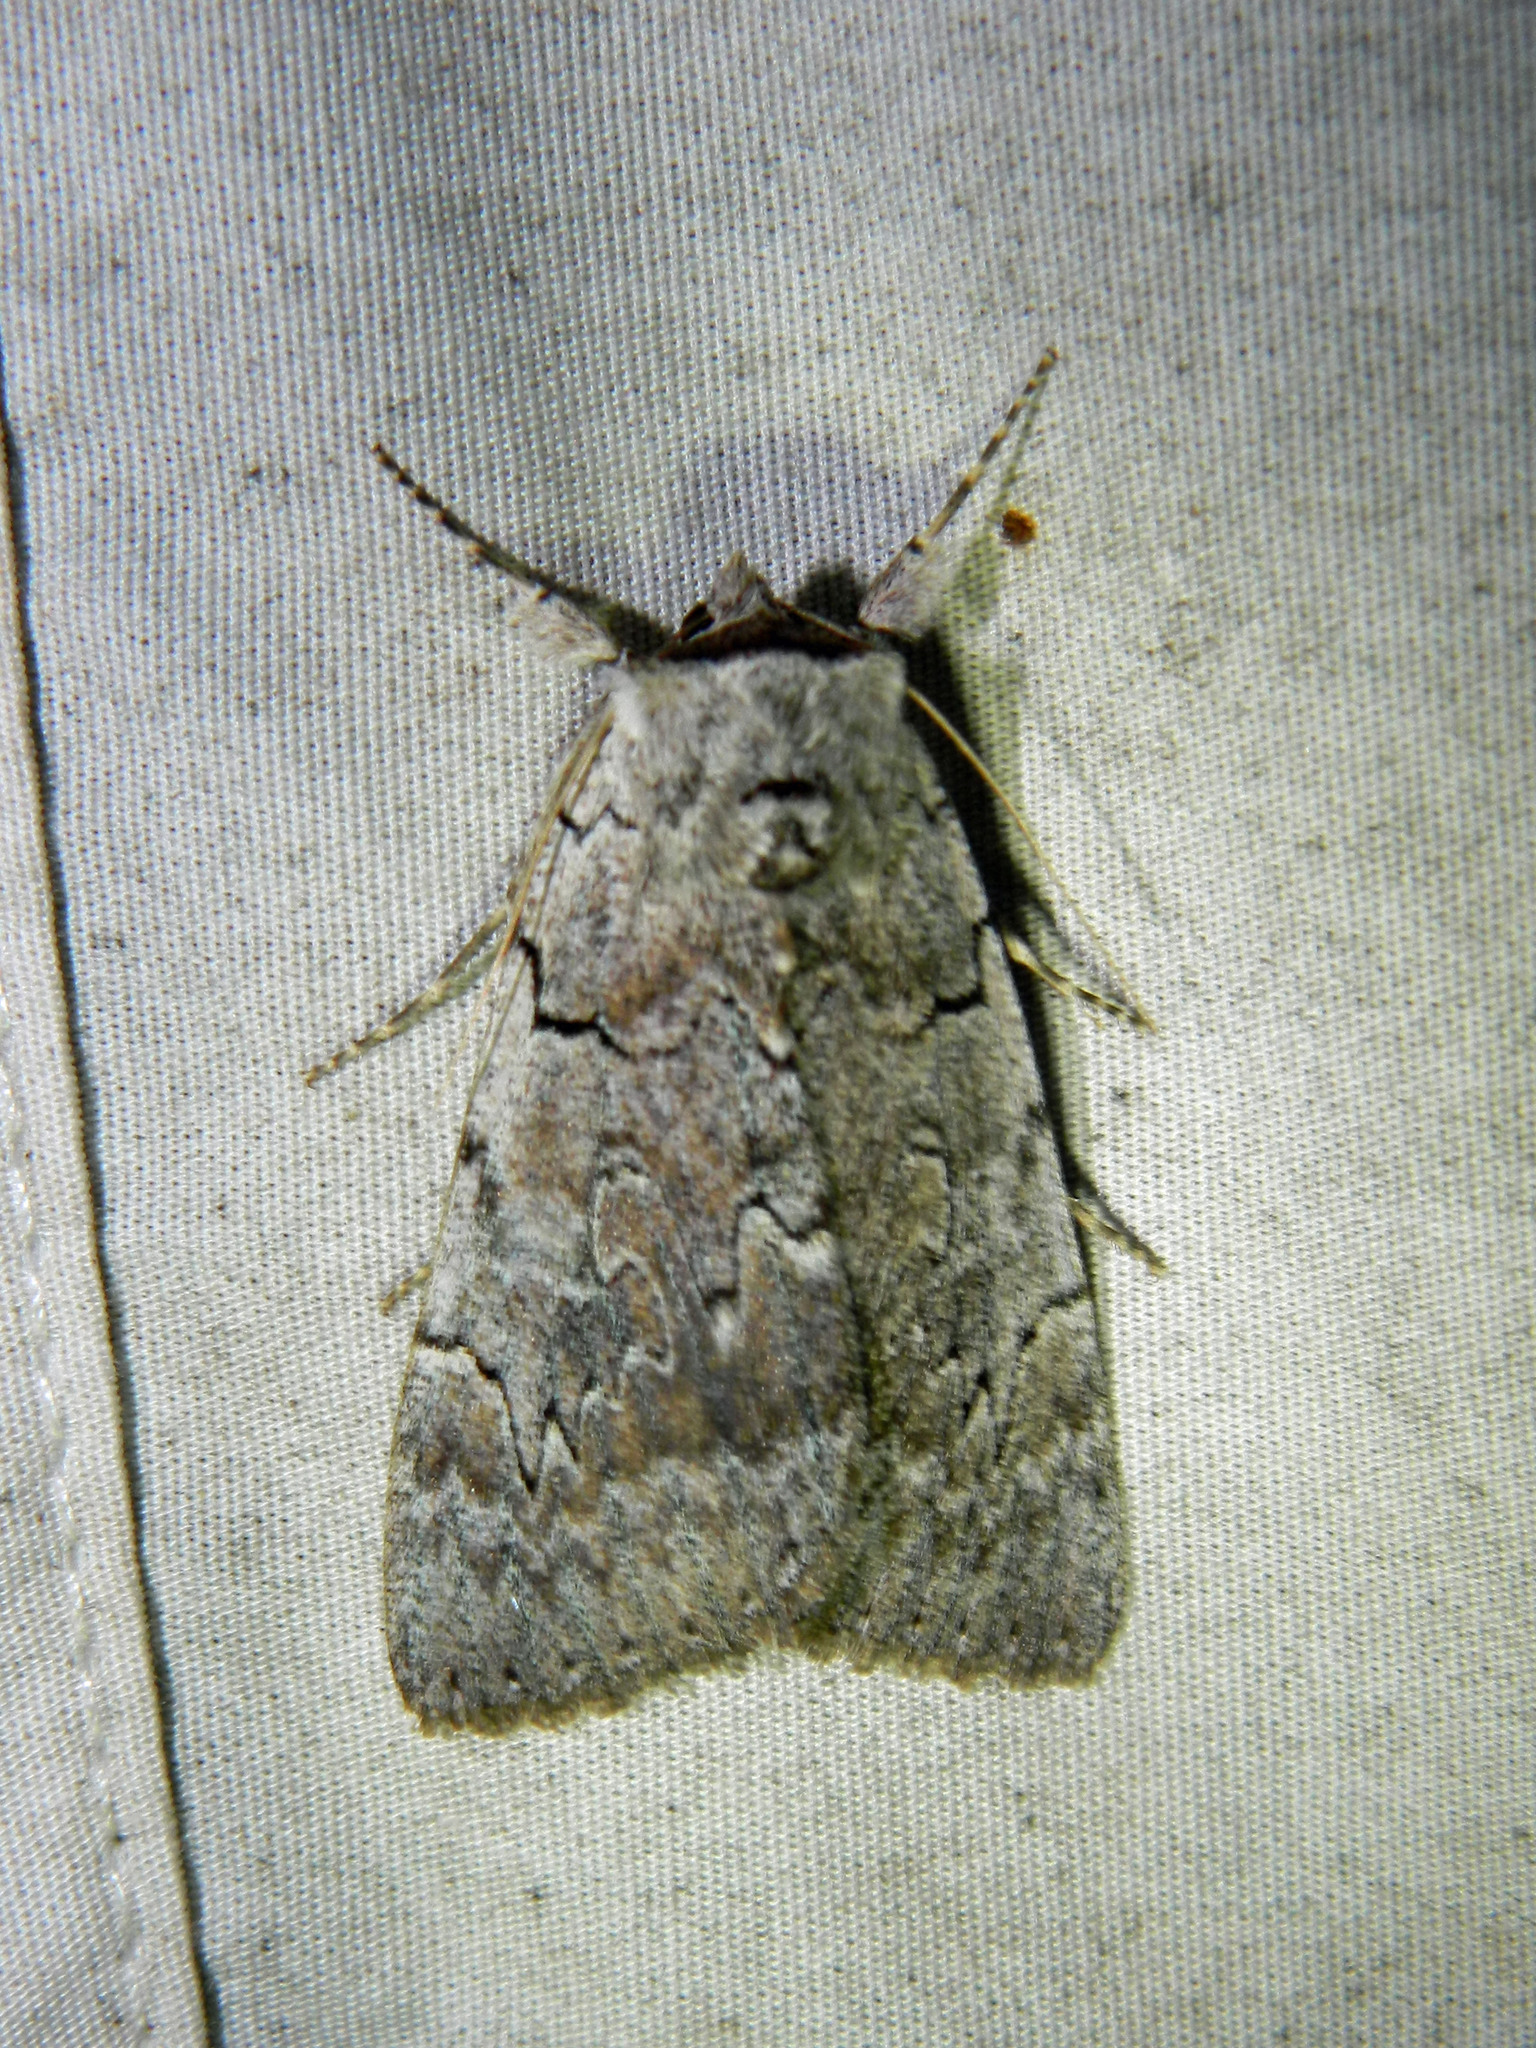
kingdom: Animalia
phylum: Arthropoda
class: Insecta
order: Lepidoptera
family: Erebidae
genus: Catocala
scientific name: Catocala concumbens
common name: Pink underwing
